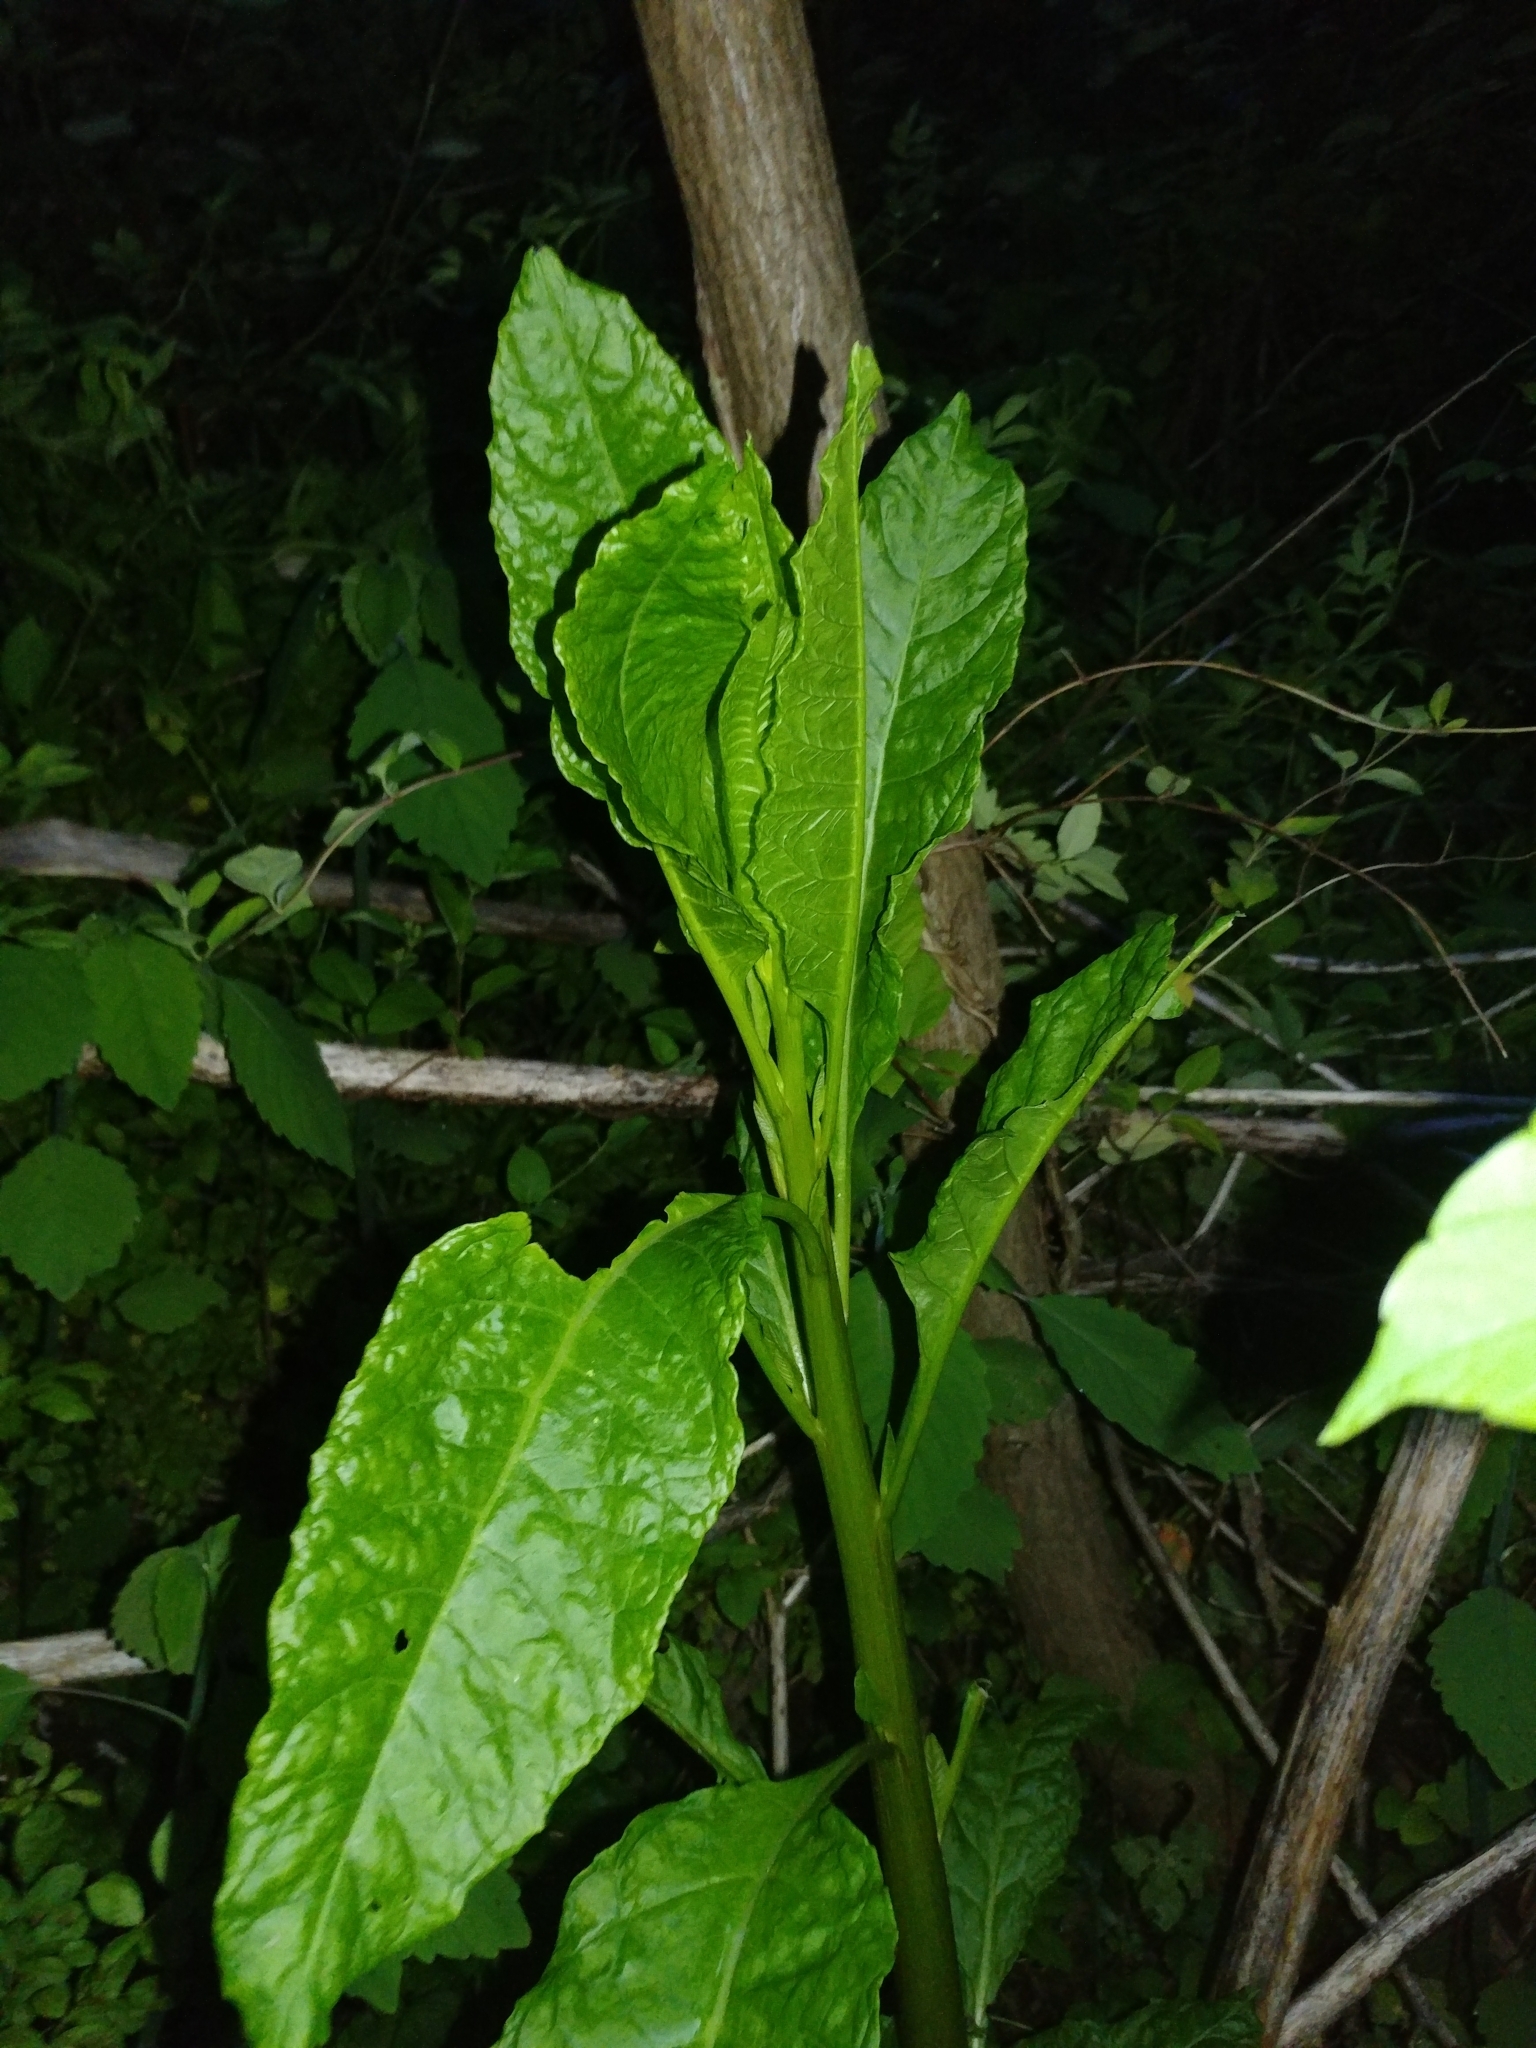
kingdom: Plantae
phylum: Tracheophyta
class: Magnoliopsida
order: Caryophyllales
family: Phytolaccaceae
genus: Phytolacca
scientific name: Phytolacca americana
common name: American pokeweed
